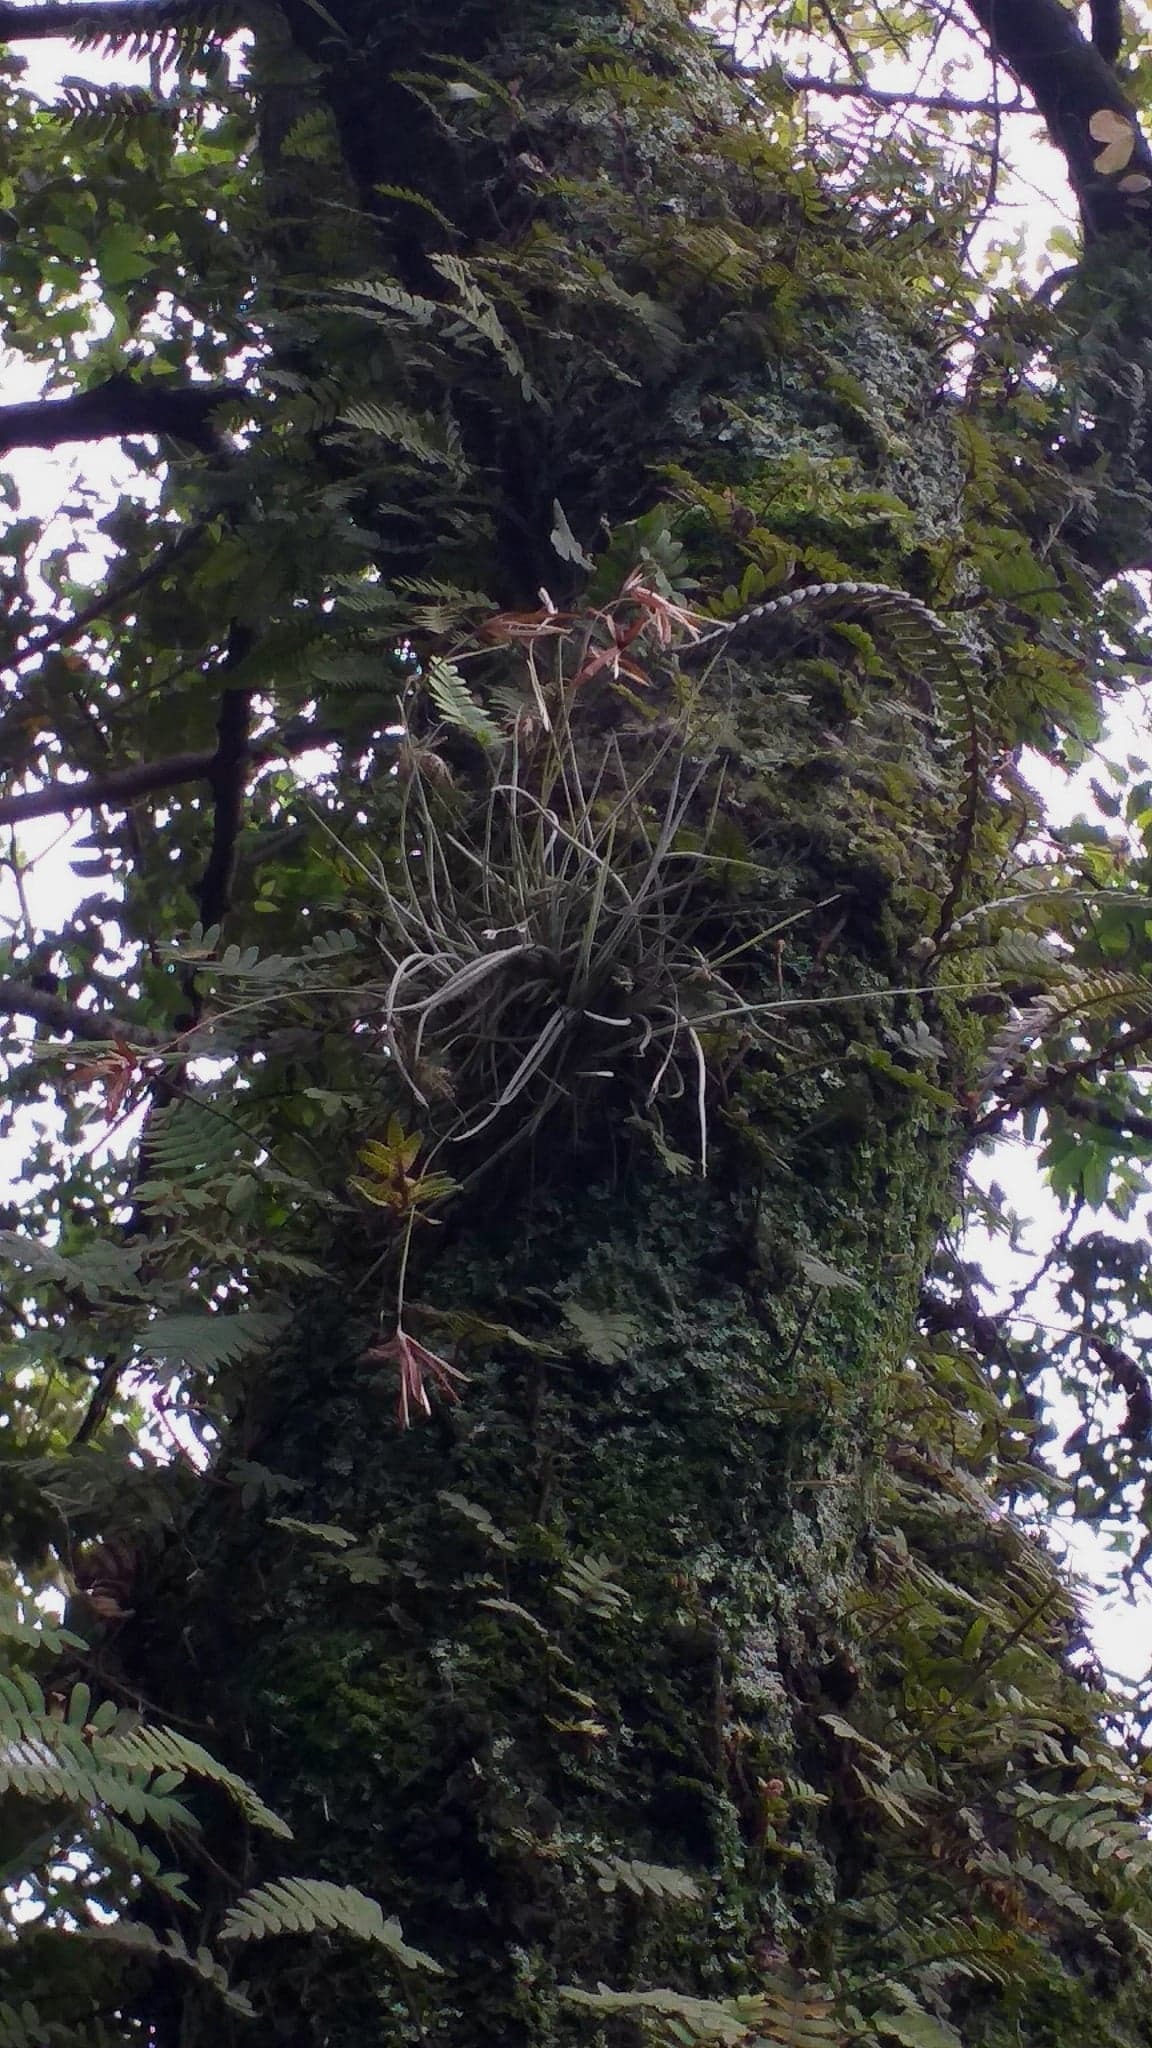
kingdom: Plantae
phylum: Tracheophyta
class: Liliopsida
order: Poales
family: Bromeliaceae
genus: Tillandsia
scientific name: Tillandsia recurvata
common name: Small ballmoss
